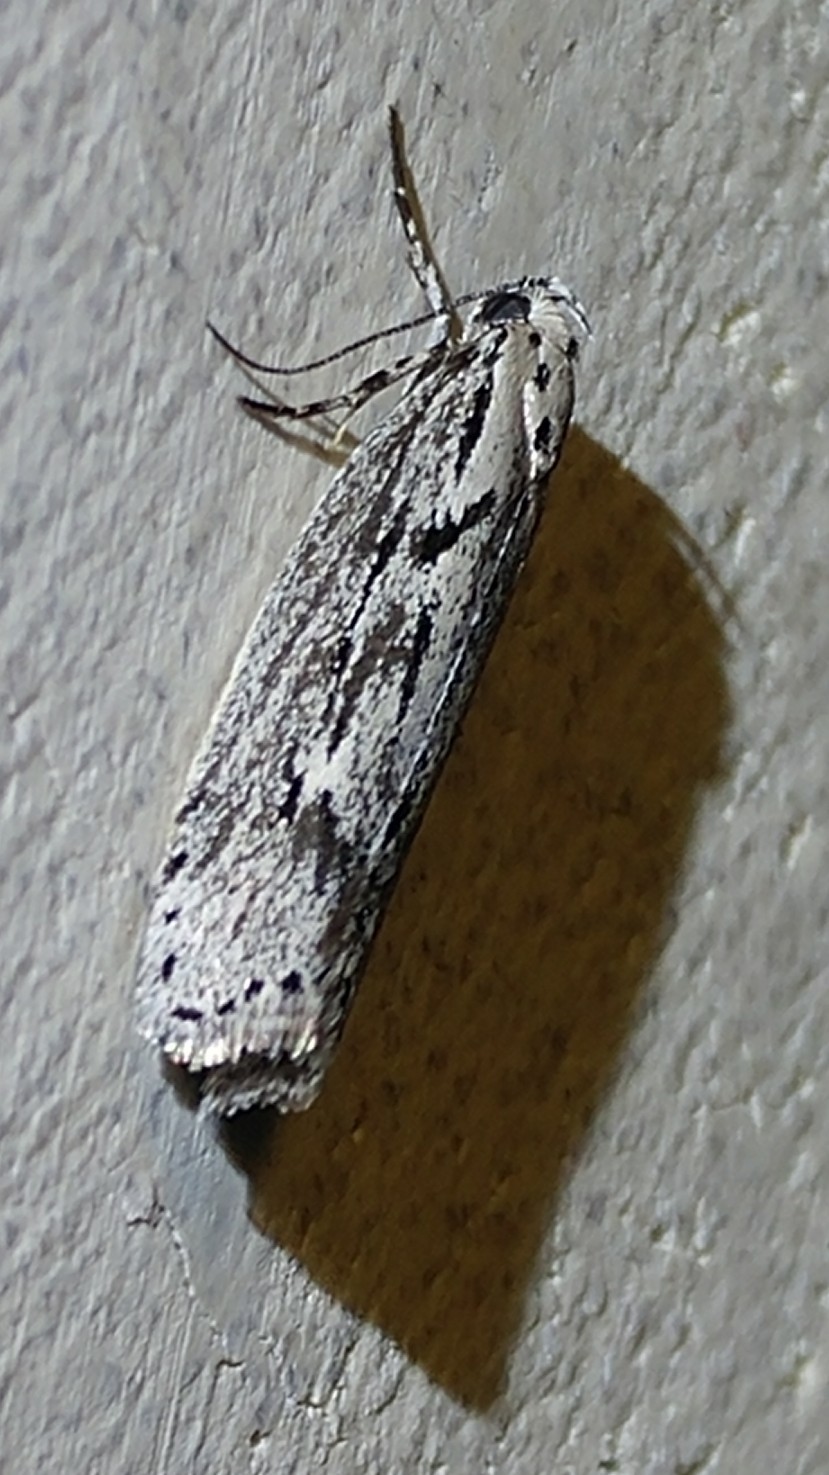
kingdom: Animalia
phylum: Arthropoda
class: Insecta
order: Lepidoptera
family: Ethmiidae
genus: Ethmia
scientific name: Ethmia discostrigella
